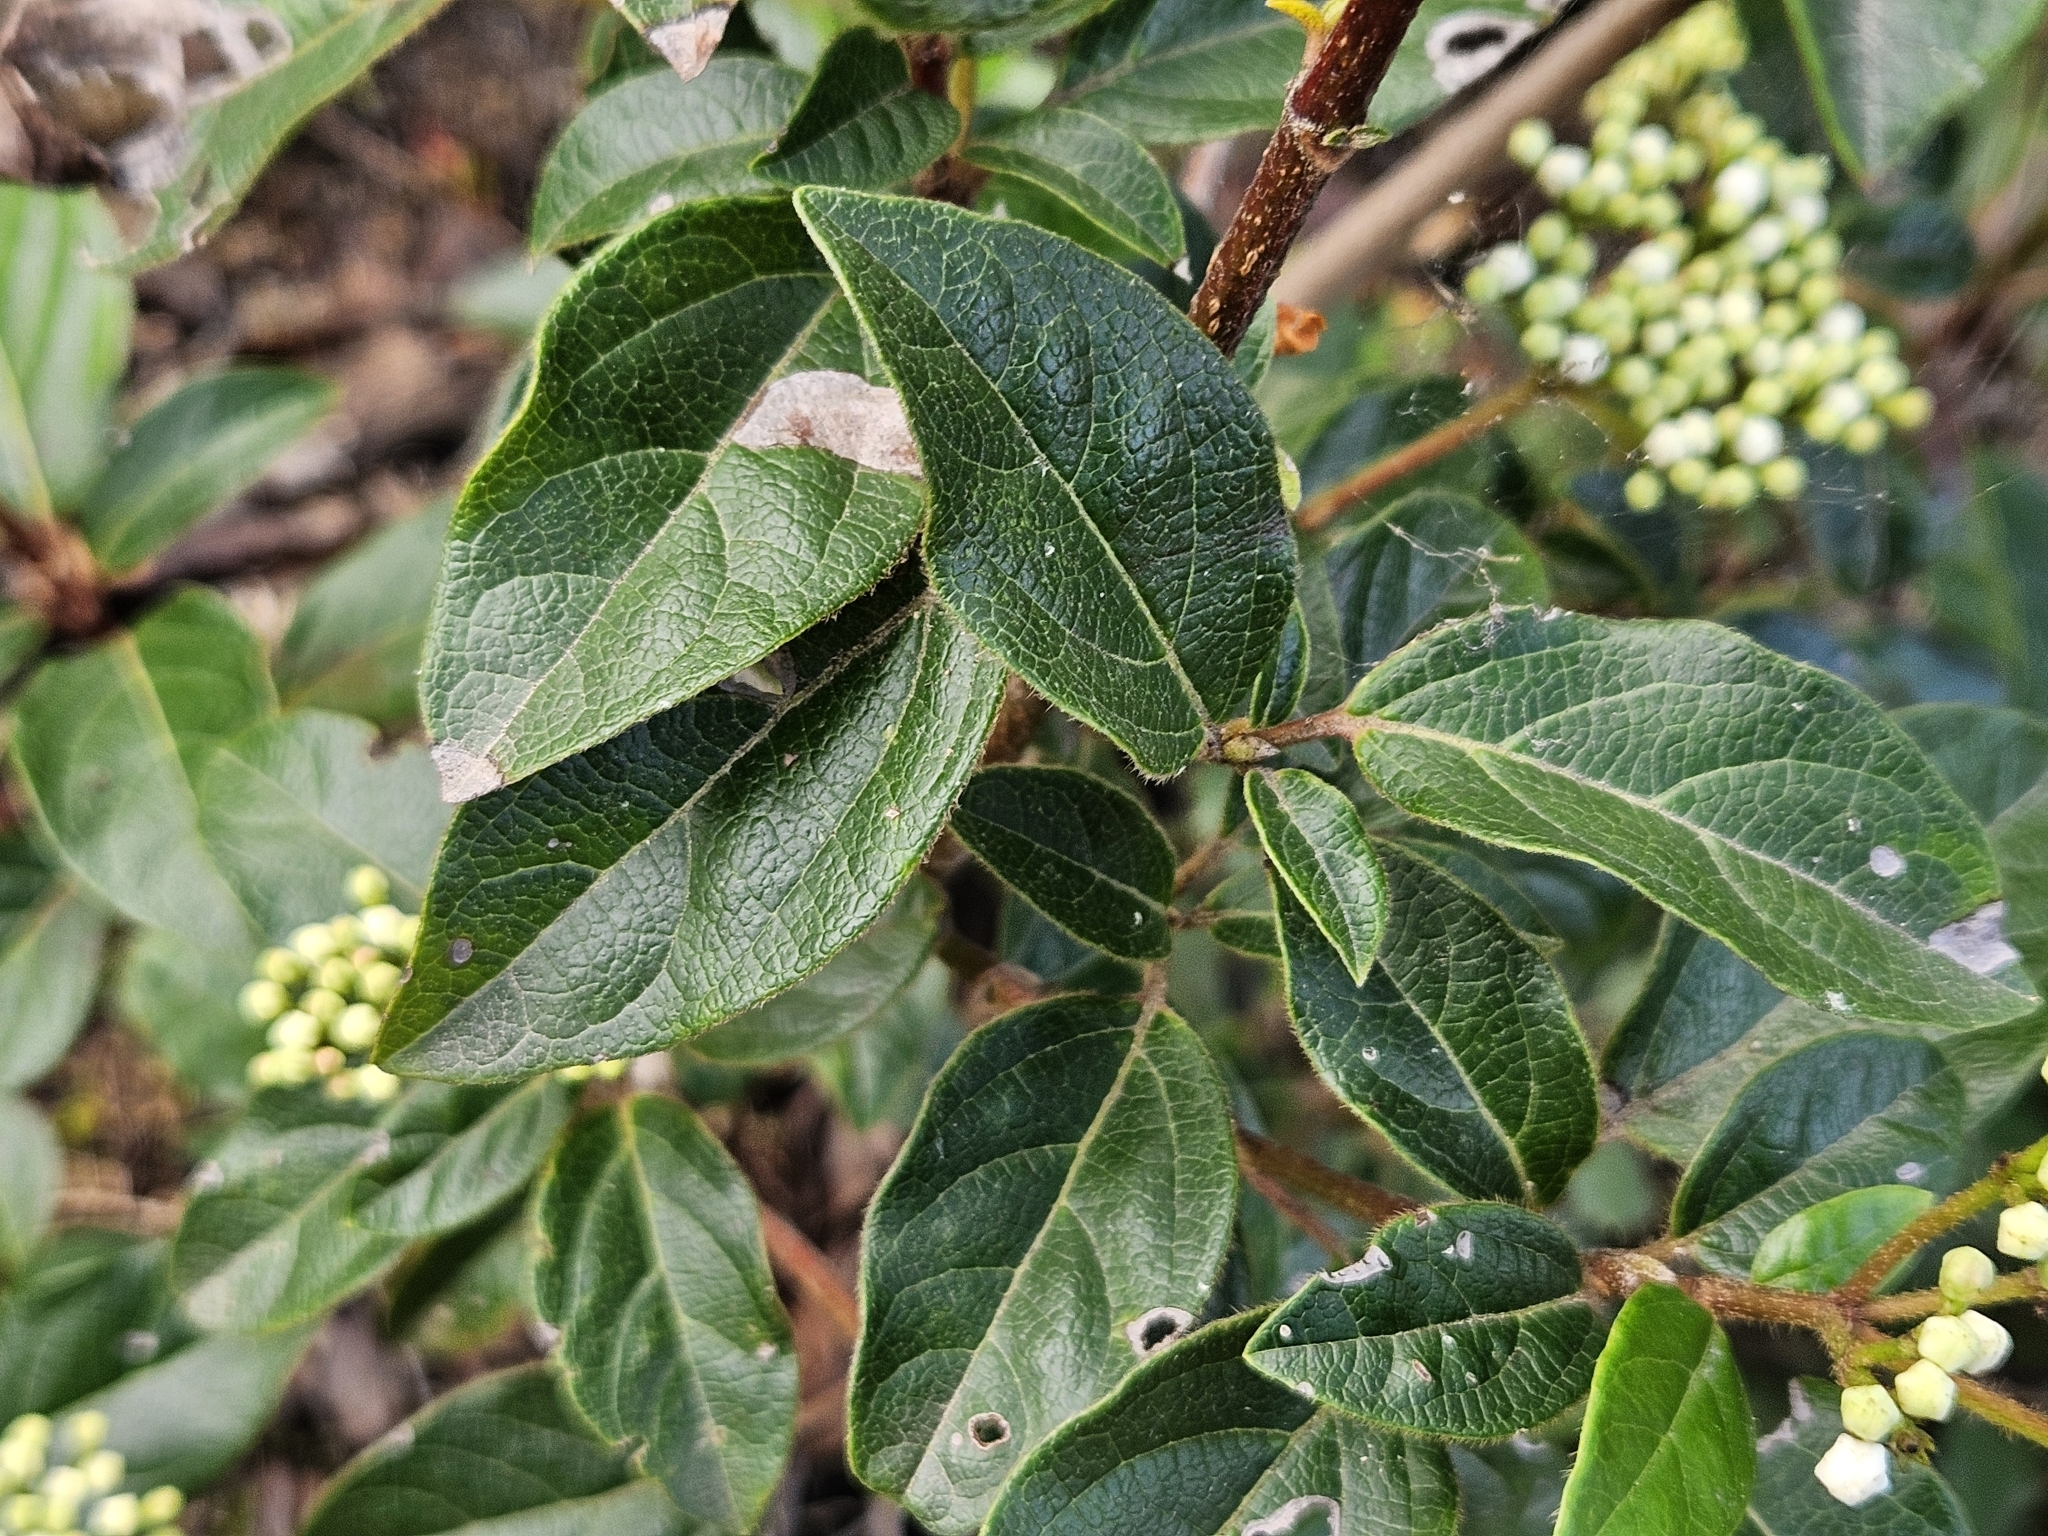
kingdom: Plantae
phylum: Tracheophyta
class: Magnoliopsida
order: Dipsacales
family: Viburnaceae
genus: Viburnum
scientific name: Viburnum tinus
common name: Laurustinus
